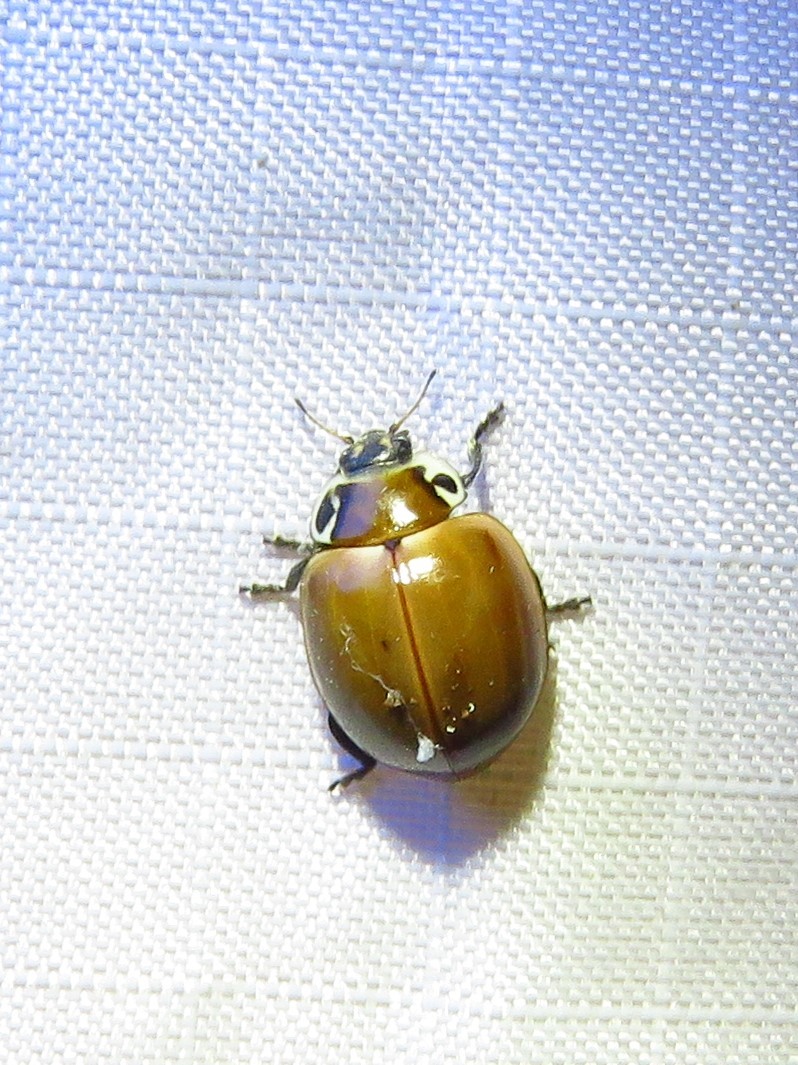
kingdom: Animalia
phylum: Arthropoda
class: Insecta
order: Coleoptera
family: Coccinellidae
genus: Myzia
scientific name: Myzia pullata
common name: Streaked lady beetle
